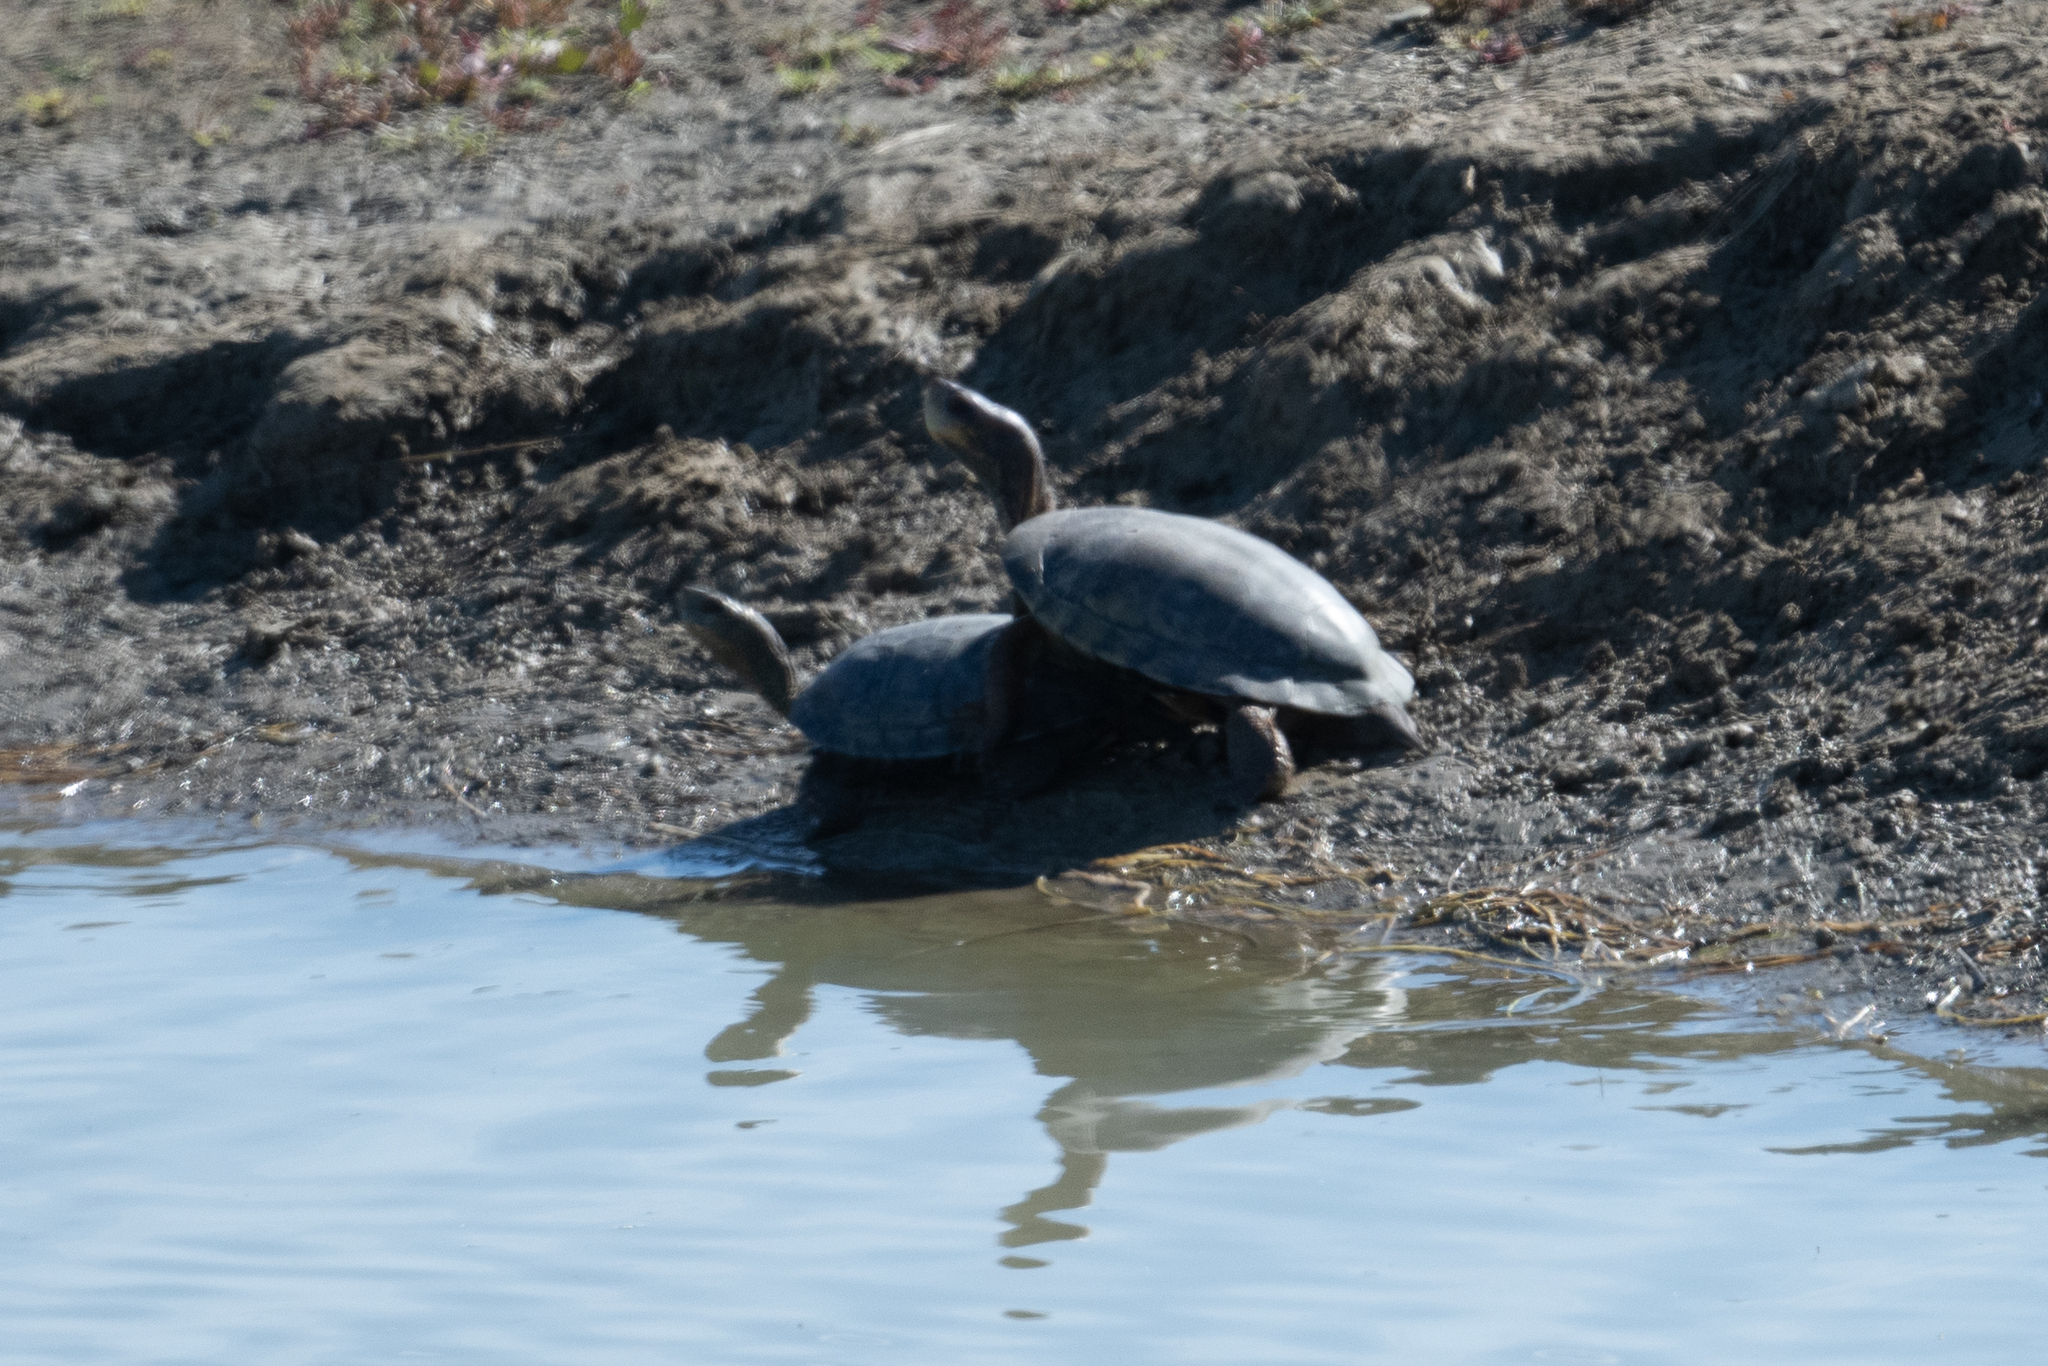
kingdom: Animalia
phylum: Chordata
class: Testudines
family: Emydidae
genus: Actinemys
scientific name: Actinemys marmorata
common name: Western pond turtle
